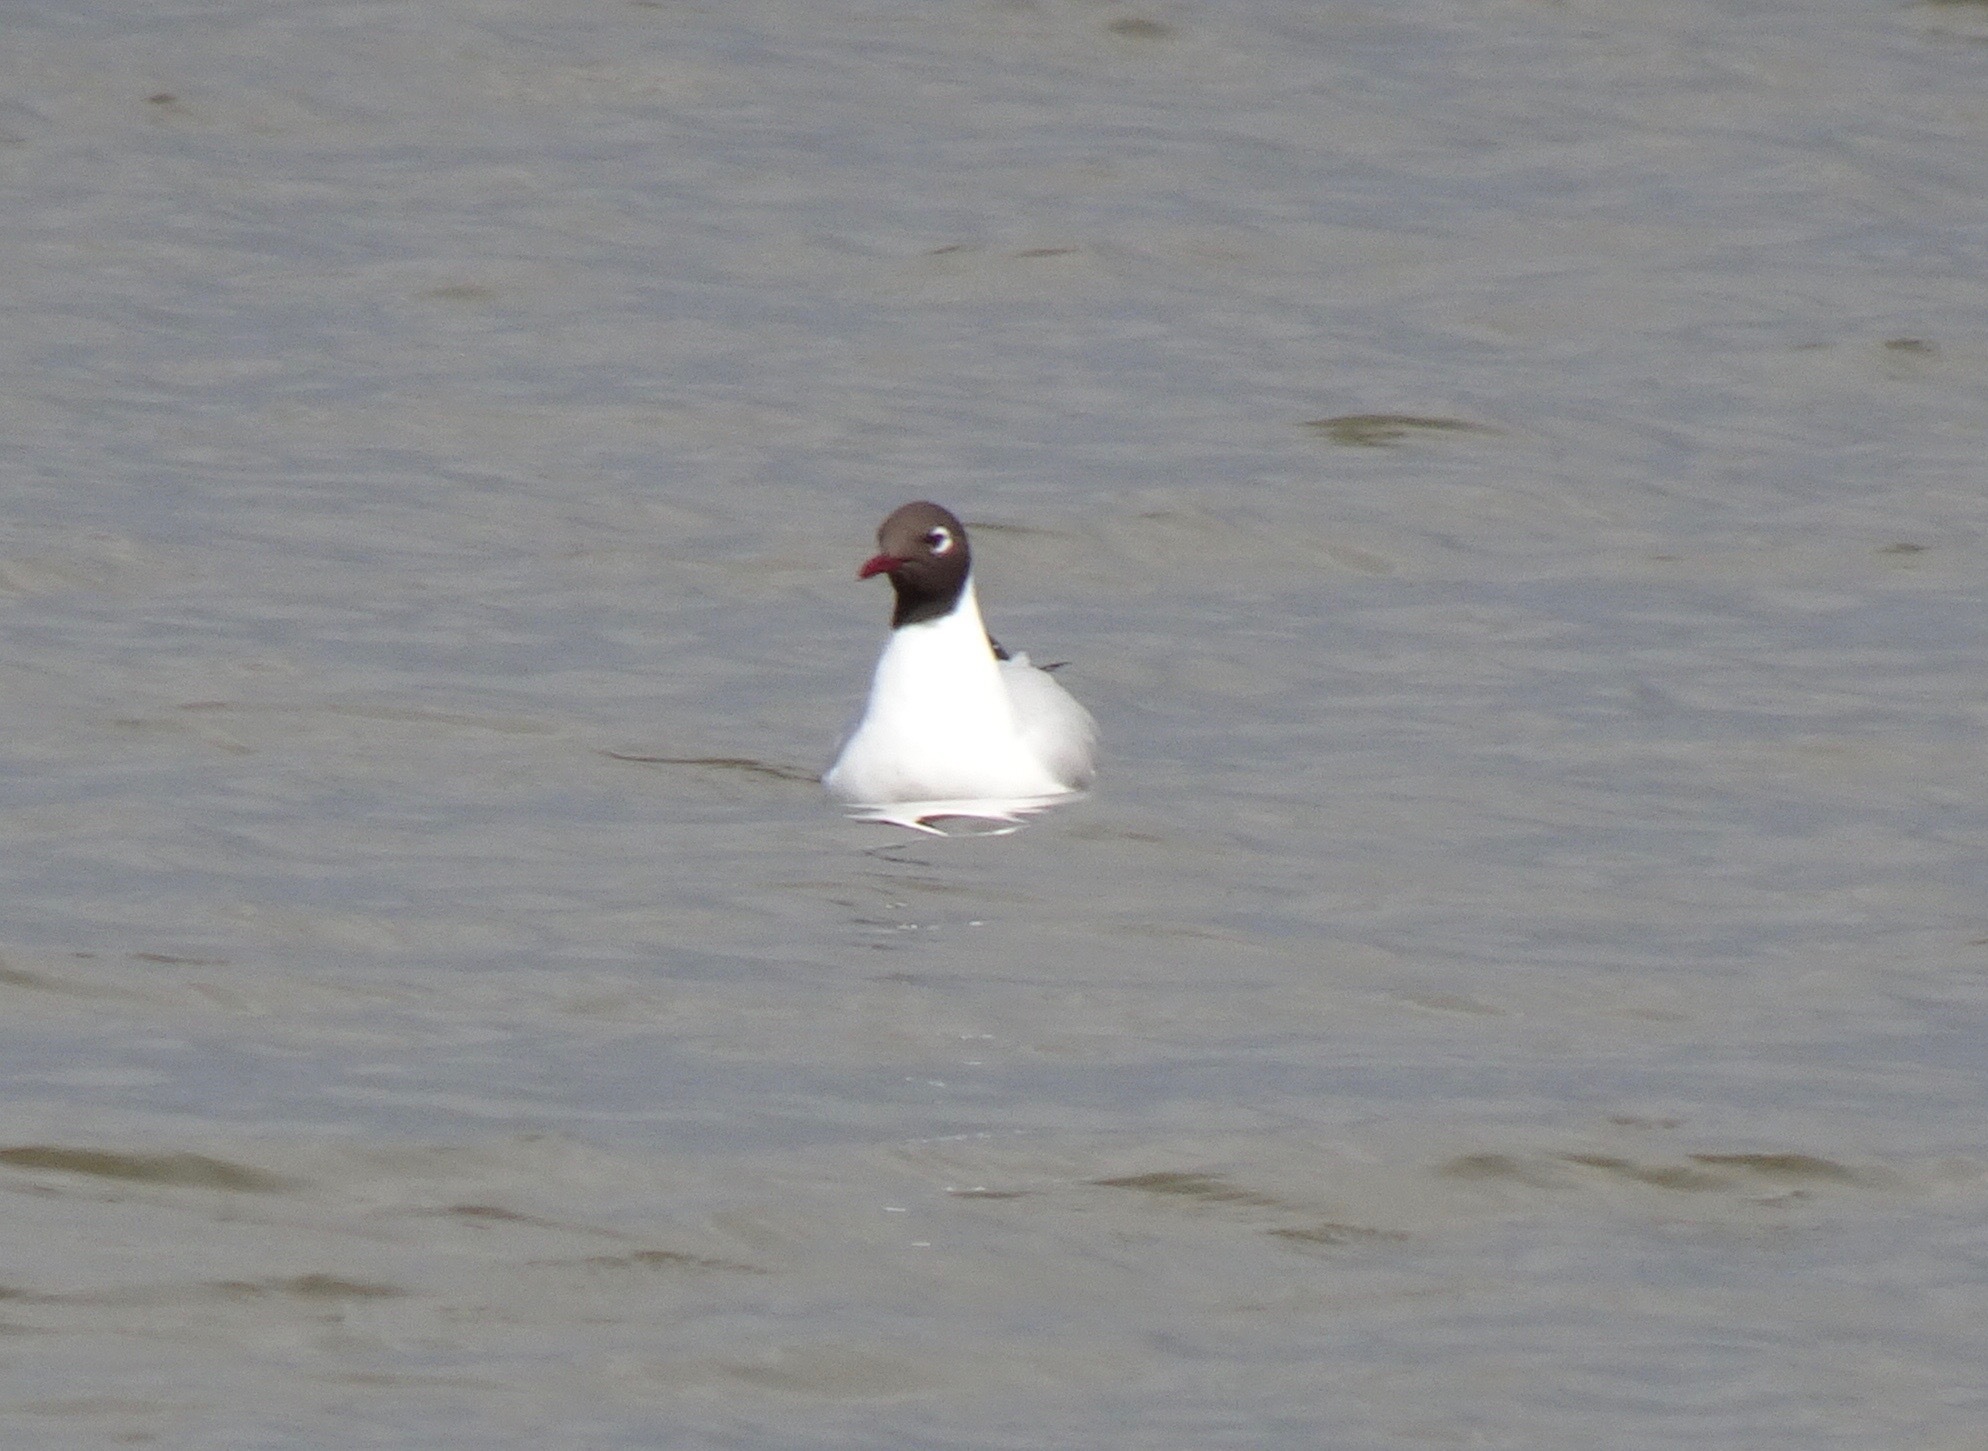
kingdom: Animalia
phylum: Chordata
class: Aves
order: Charadriiformes
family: Laridae
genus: Chroicocephalus
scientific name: Chroicocephalus ridibundus
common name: Black-headed gull
